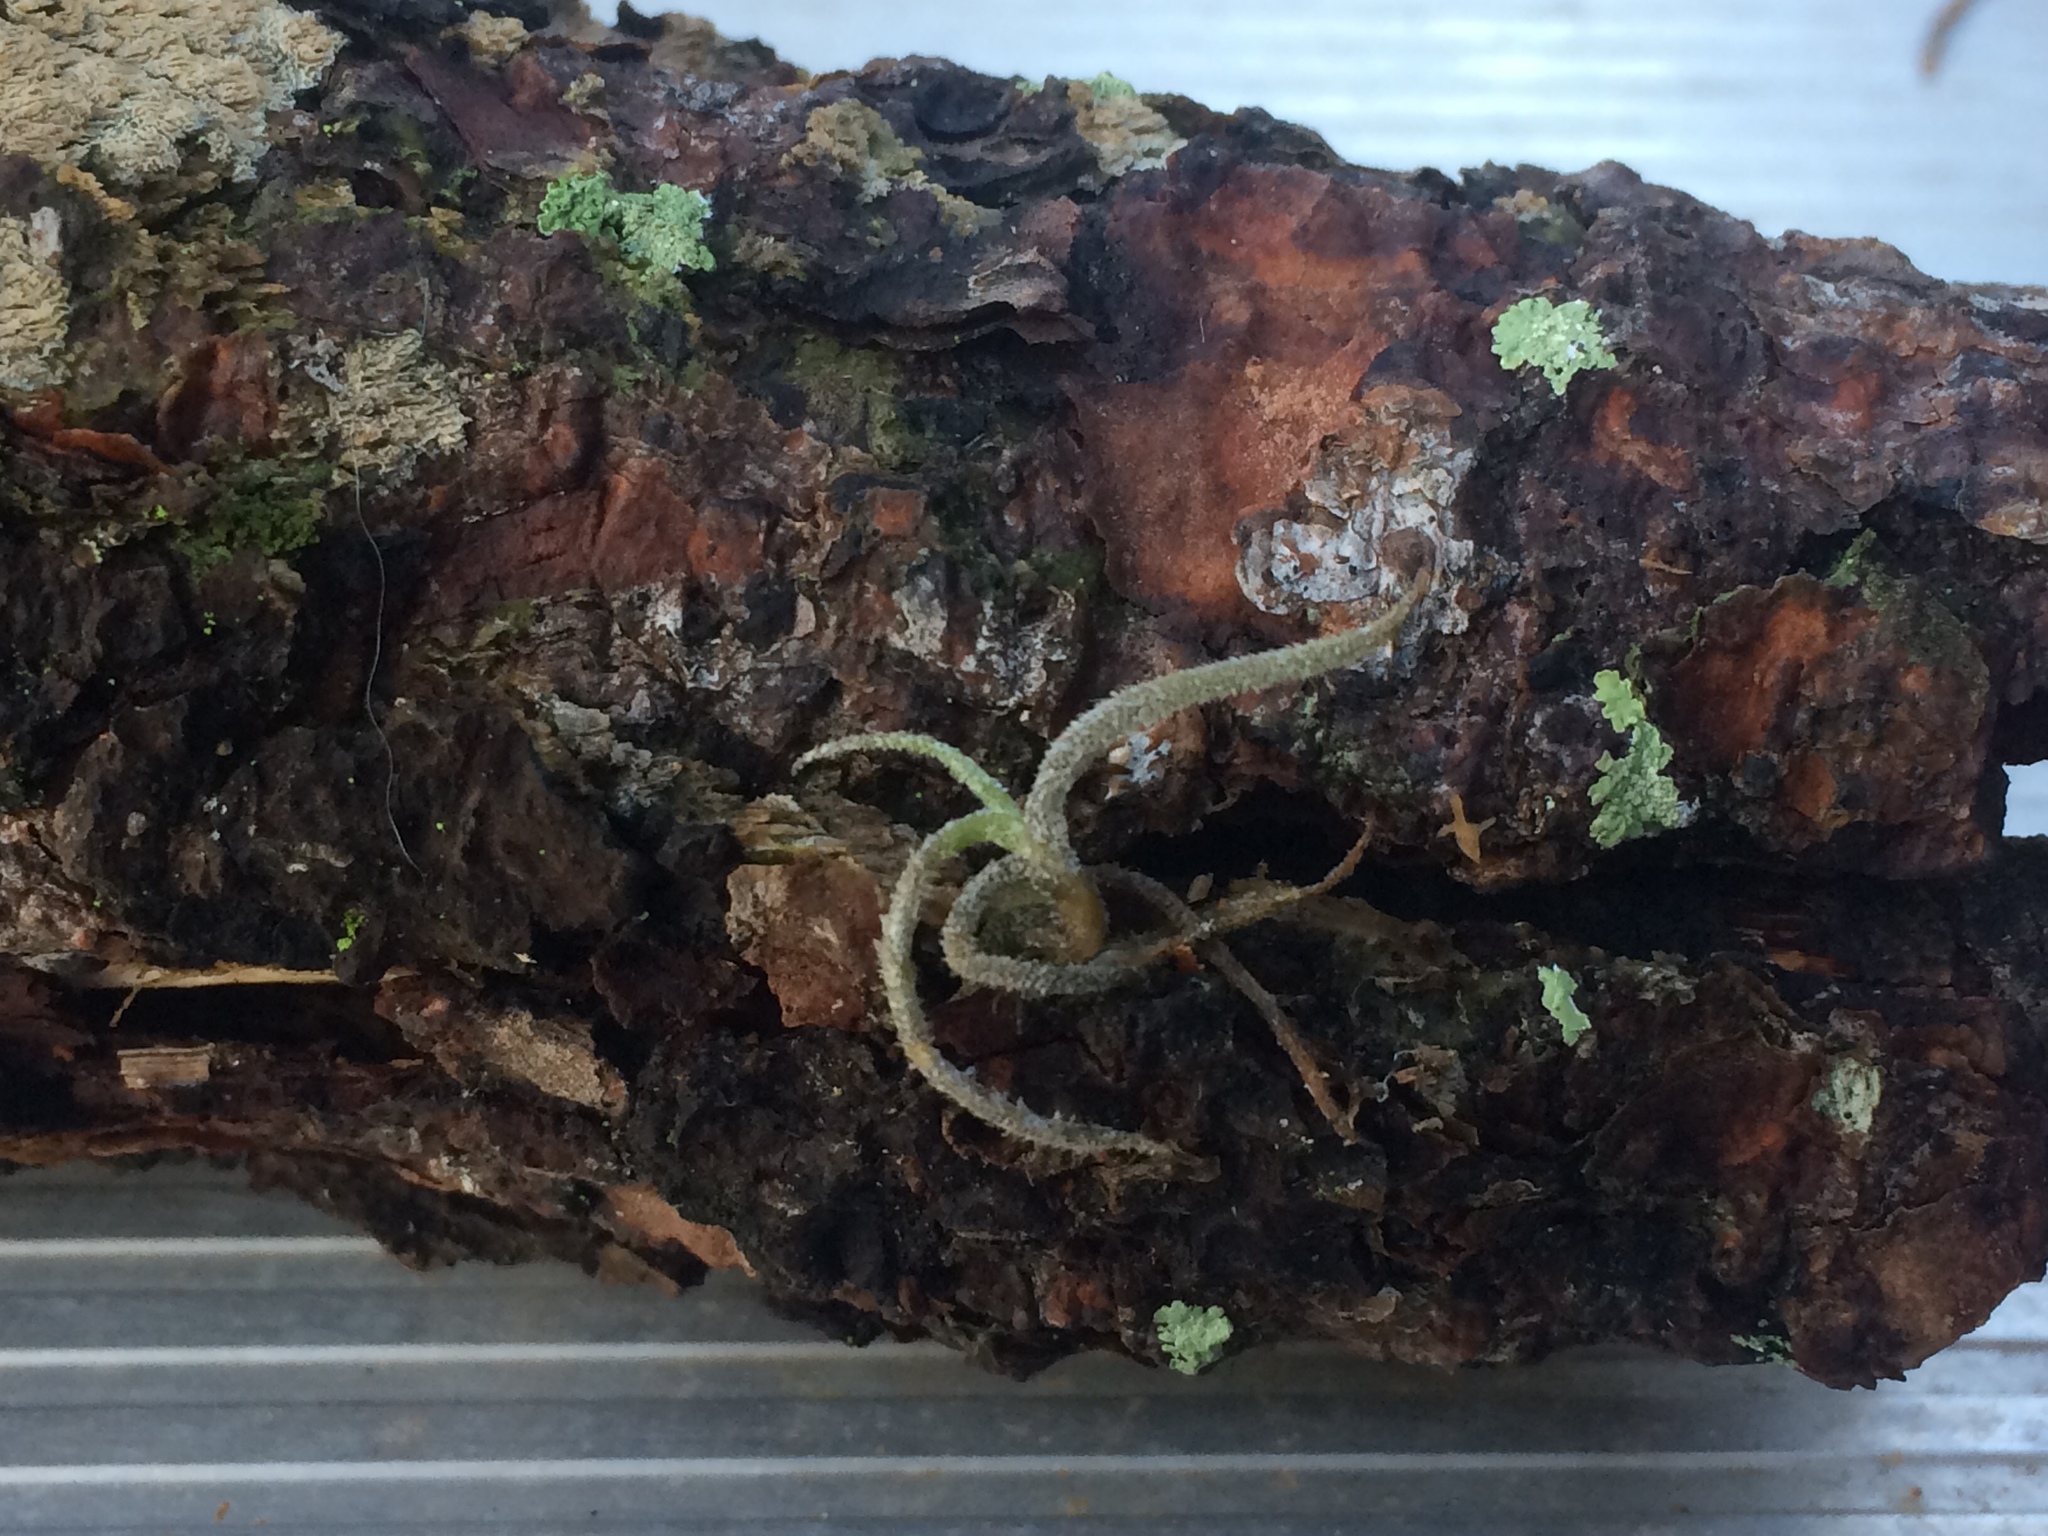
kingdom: Plantae
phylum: Tracheophyta
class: Liliopsida
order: Poales
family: Bromeliaceae
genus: Tillandsia
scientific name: Tillandsia usneoides
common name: Spanish moss
